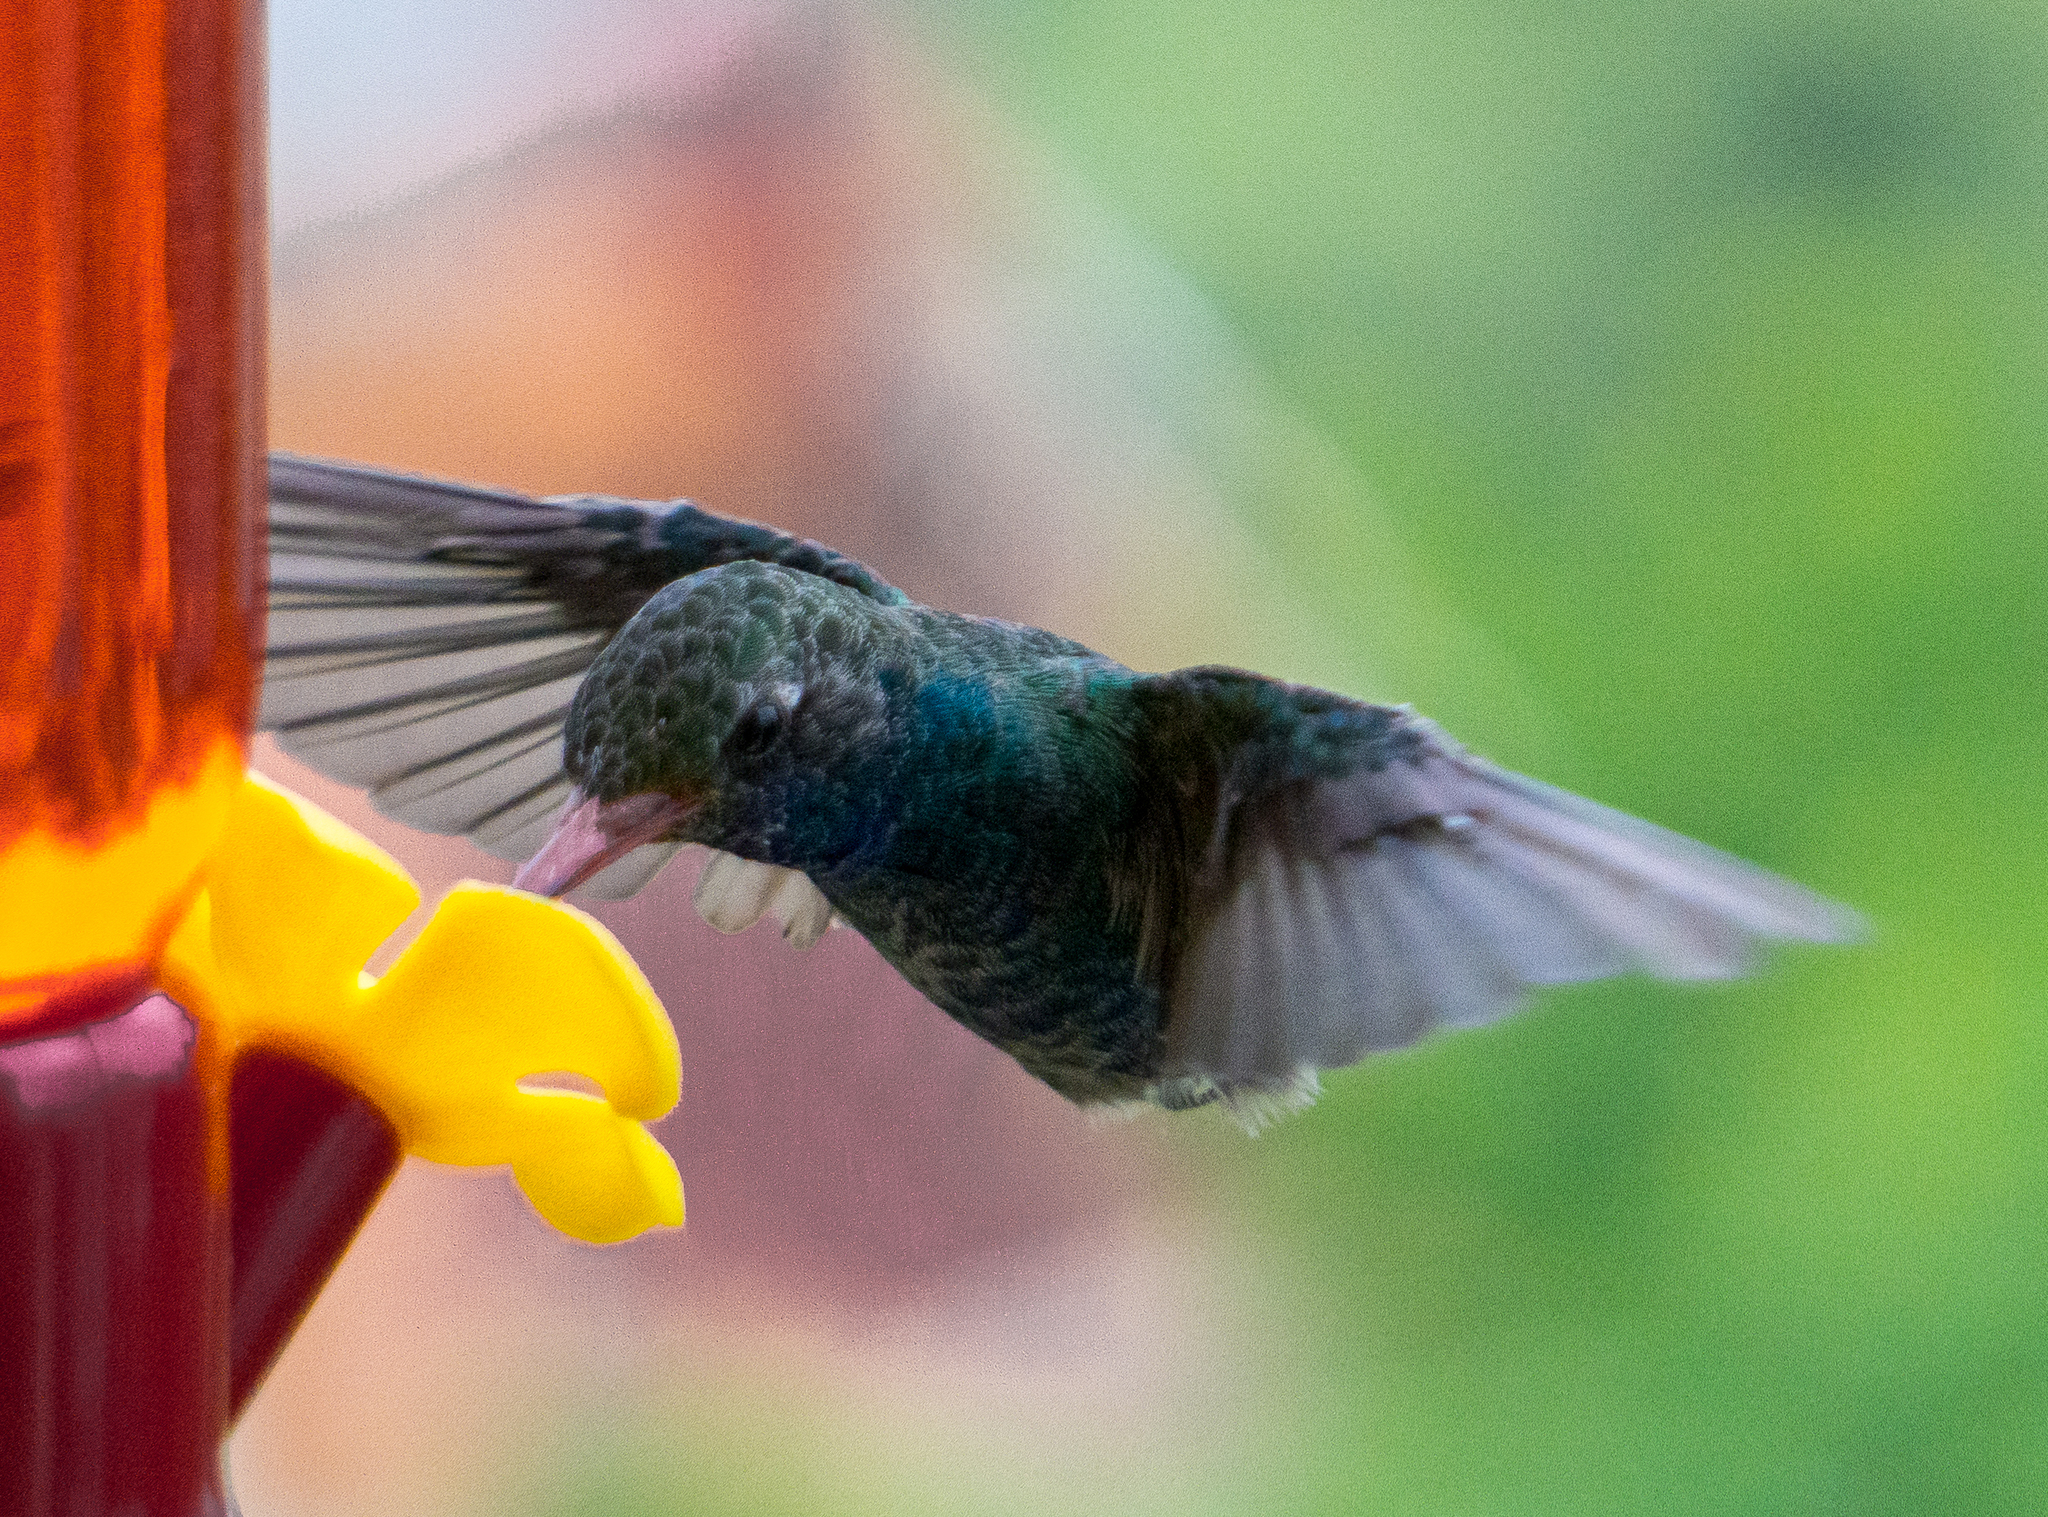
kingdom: Animalia
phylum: Chordata
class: Aves
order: Apodiformes
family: Trochilidae
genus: Cynanthus
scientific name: Cynanthus latirostris
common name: Broad-billed hummingbird
